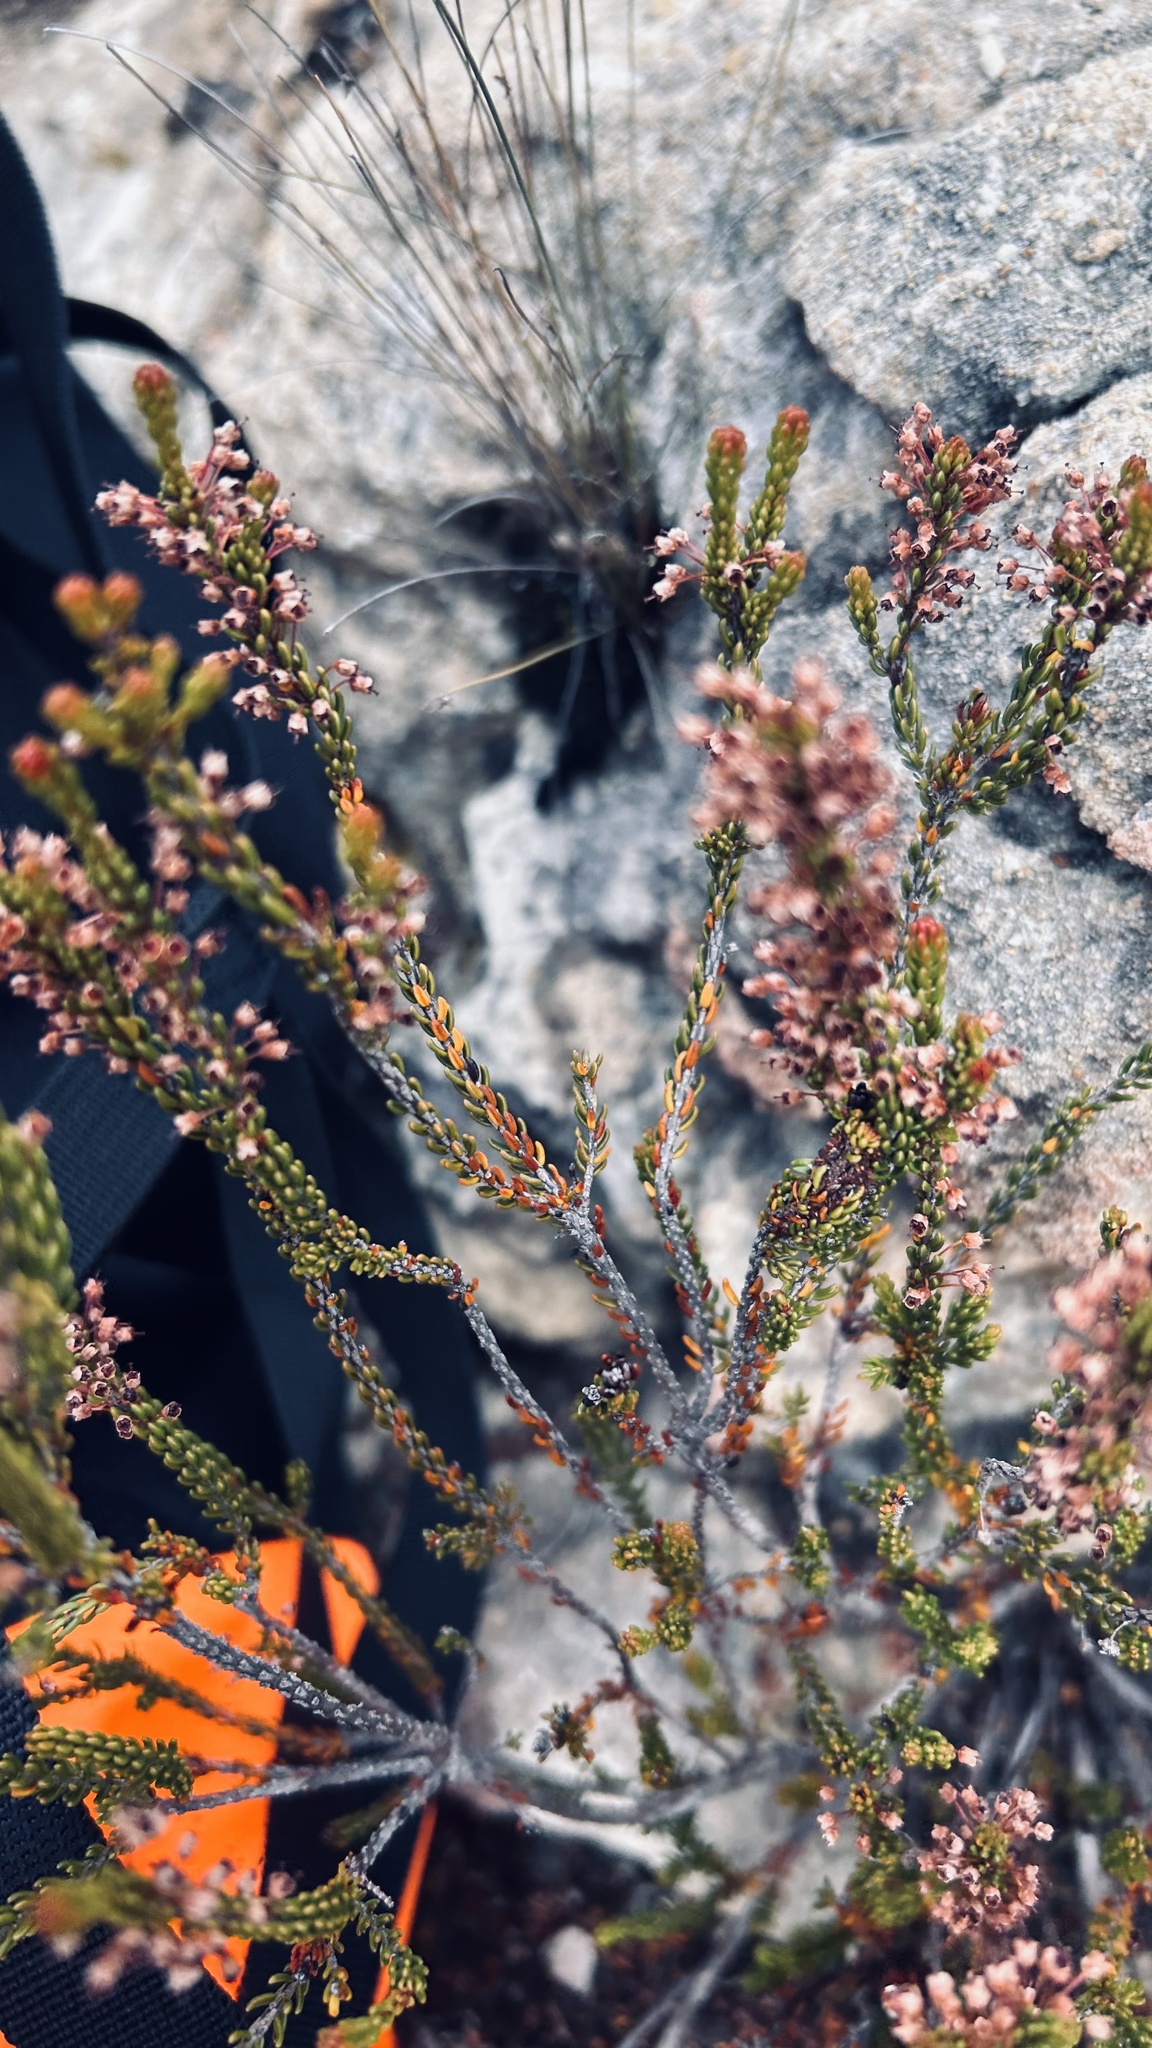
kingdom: Plantae
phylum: Tracheophyta
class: Magnoliopsida
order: Ericales
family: Ericaceae
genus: Erica
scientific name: Erica curtophylla
